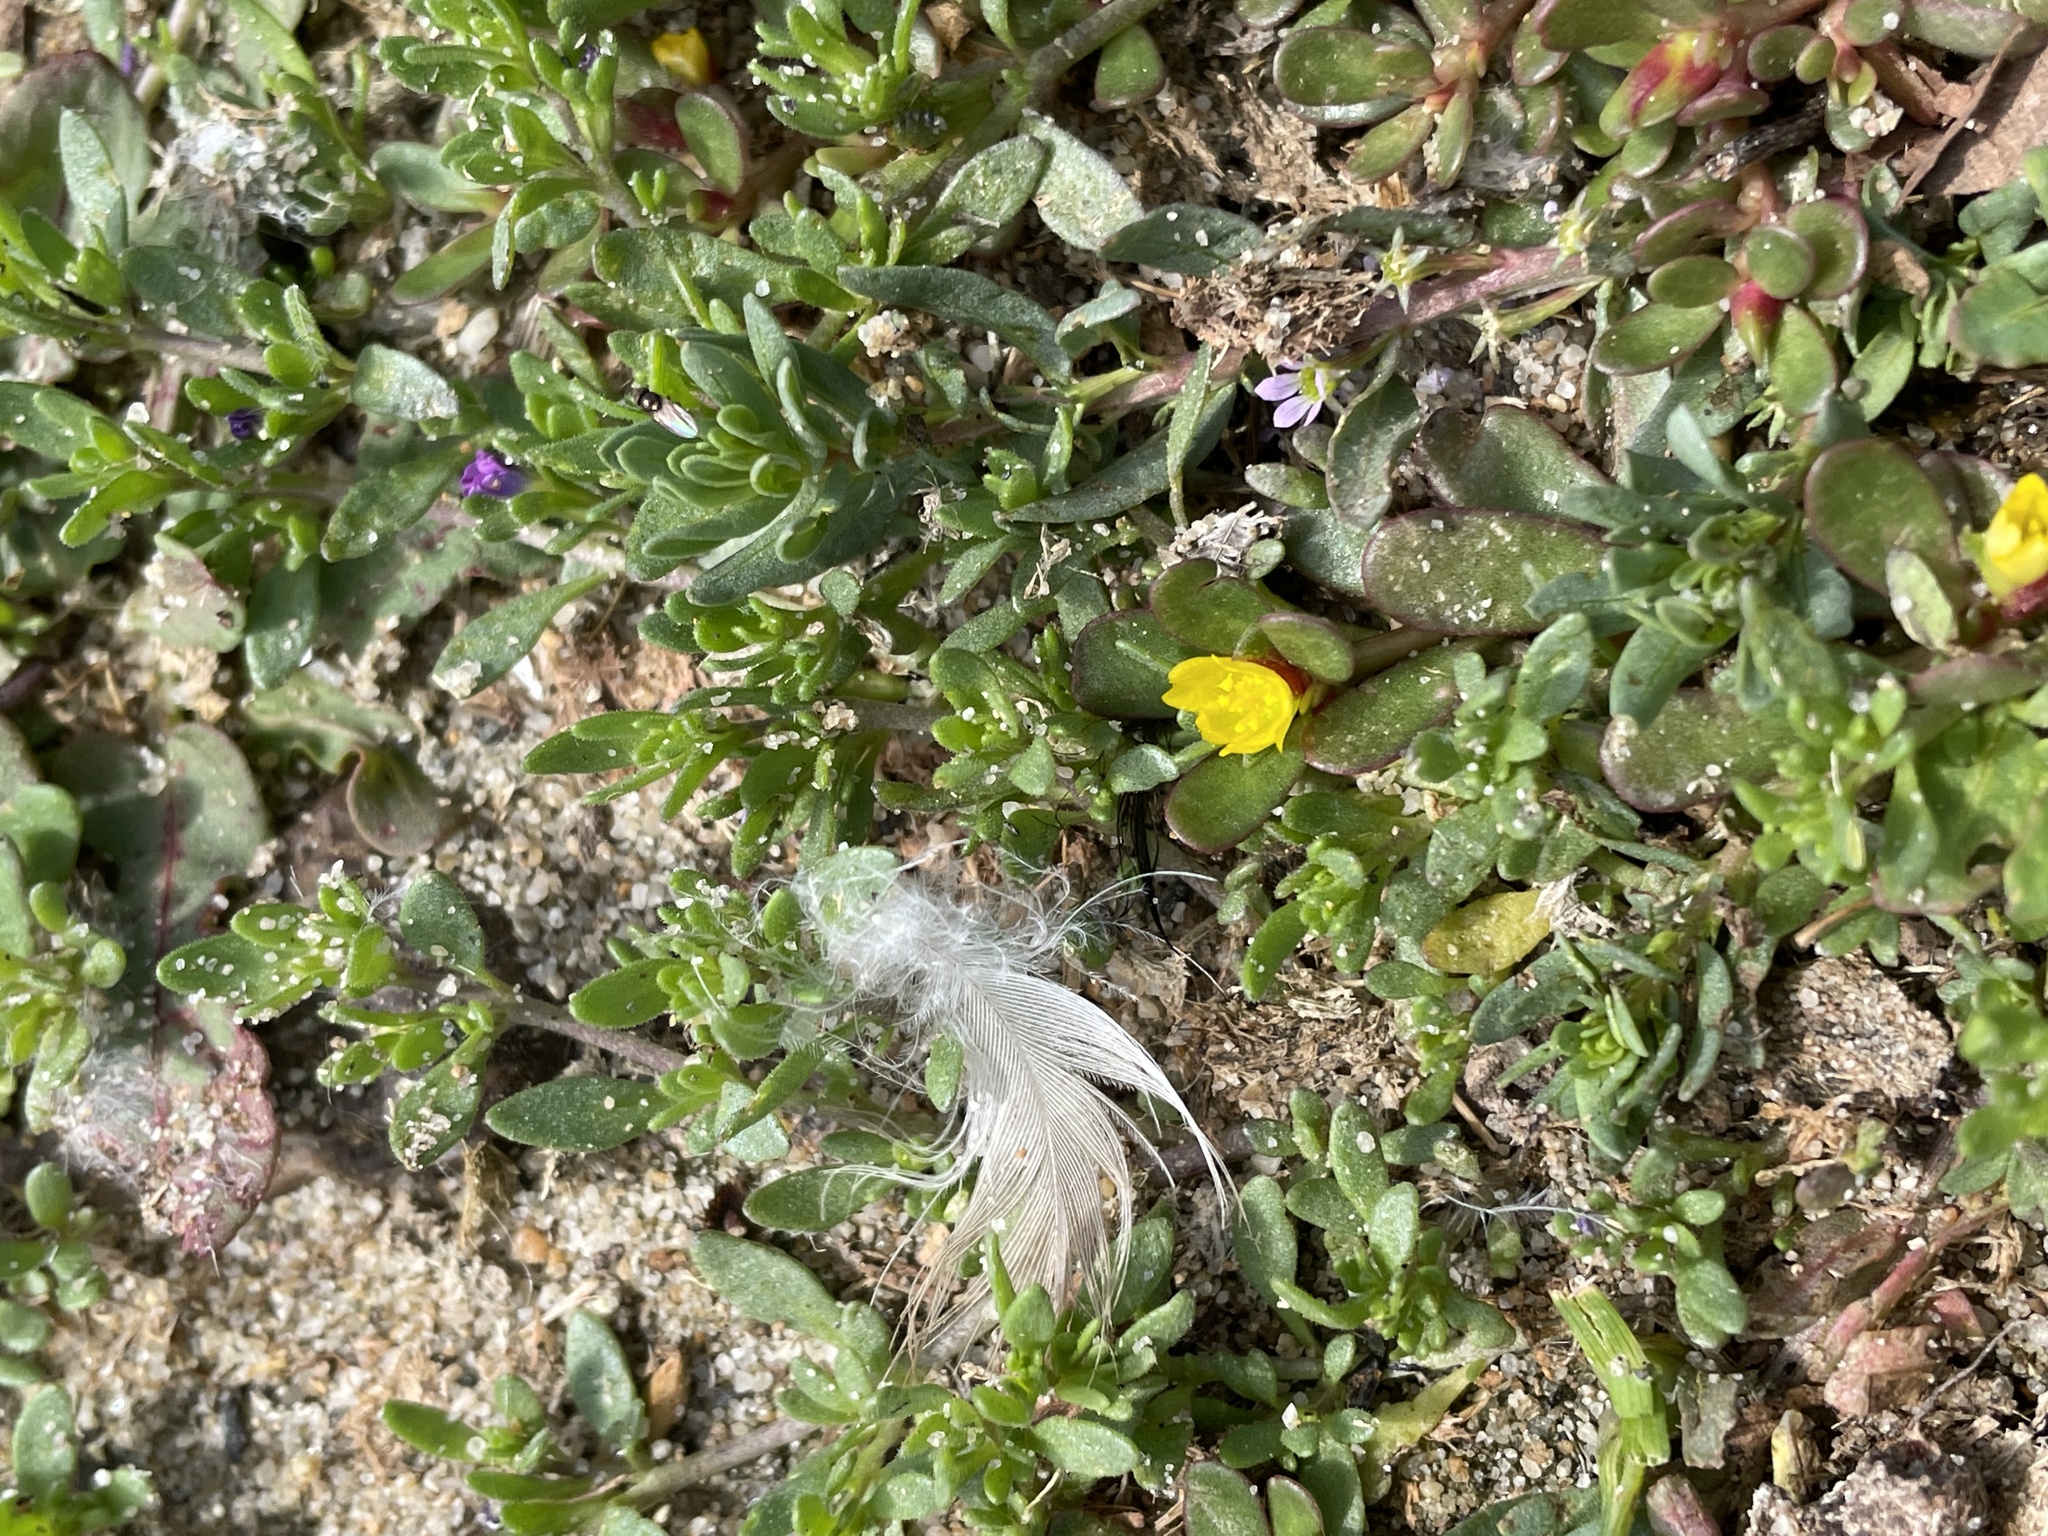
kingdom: Plantae
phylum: Tracheophyta
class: Magnoliopsida
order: Caryophyllales
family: Portulacaceae
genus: Portulaca
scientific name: Portulaca oleracea
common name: Common purslane
